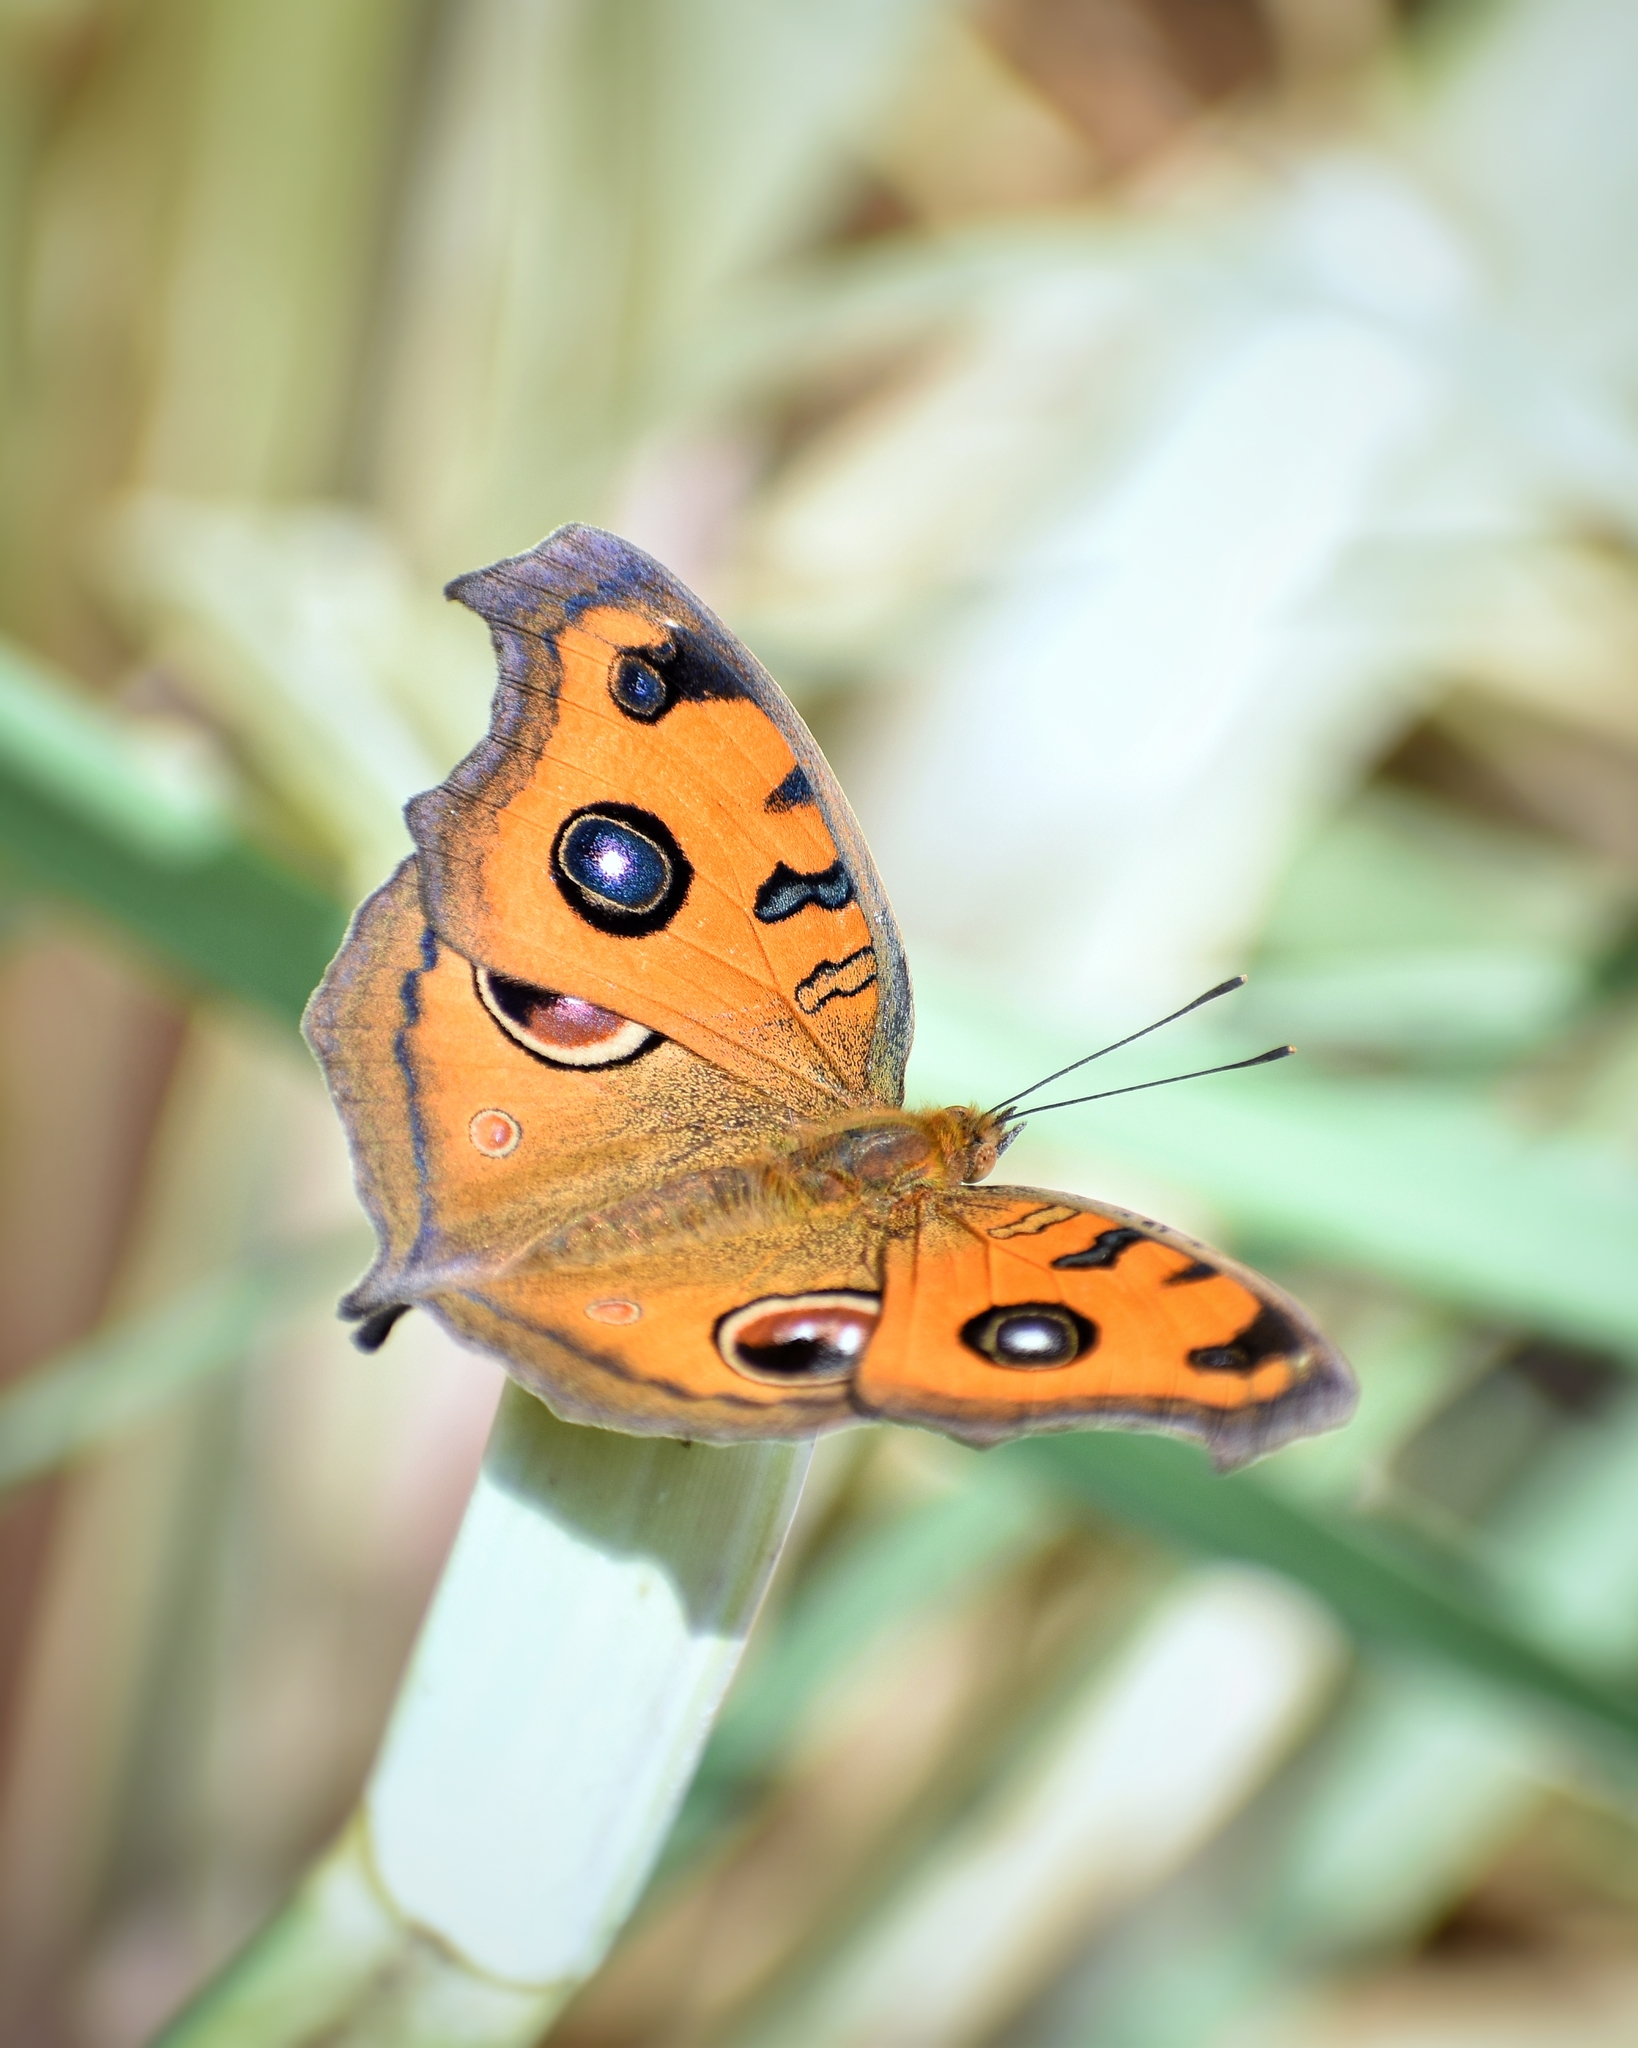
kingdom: Animalia
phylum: Arthropoda
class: Insecta
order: Lepidoptera
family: Nymphalidae
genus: Junonia
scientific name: Junonia almana
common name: Peacock pansy
